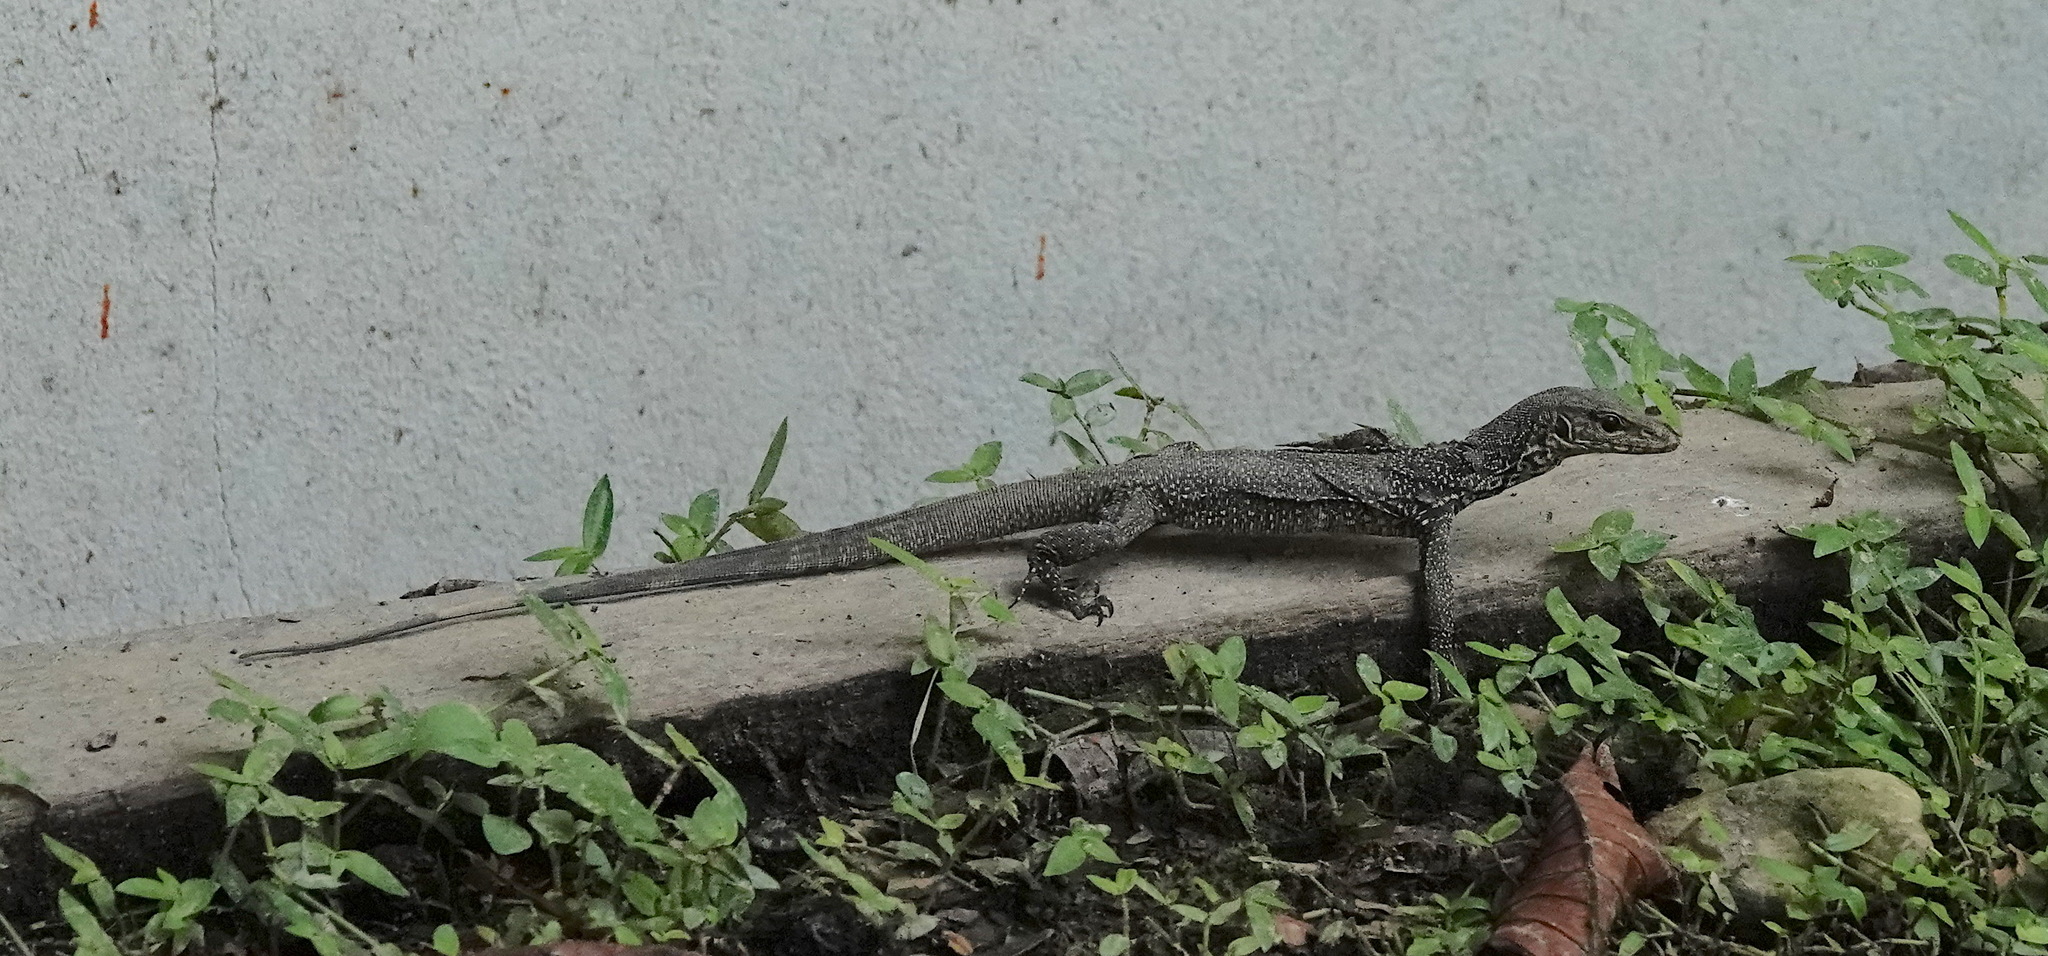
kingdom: Animalia
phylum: Chordata
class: Squamata
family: Varanidae
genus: Varanus
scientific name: Varanus nebulosus
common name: Clouded monitor
